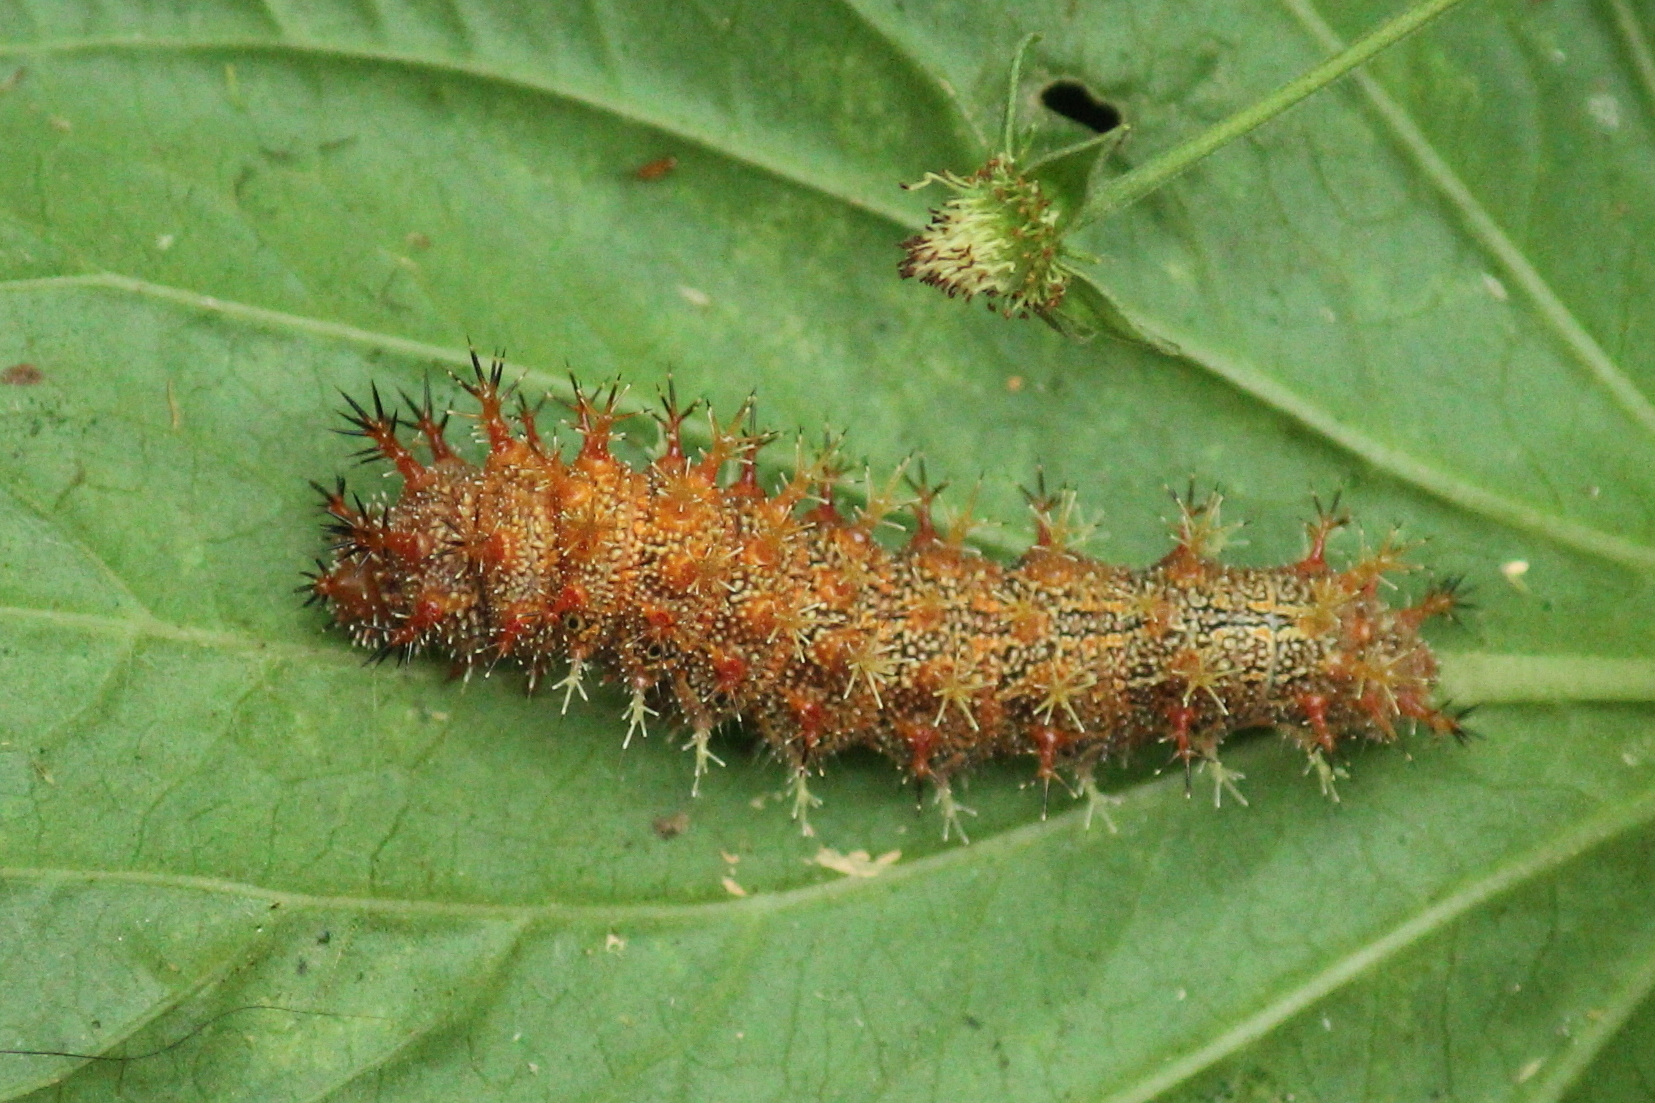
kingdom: Animalia
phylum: Arthropoda
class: Insecta
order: Lepidoptera
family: Nymphalidae
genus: Polygonia
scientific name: Polygonia interrogationis
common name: Question mark
